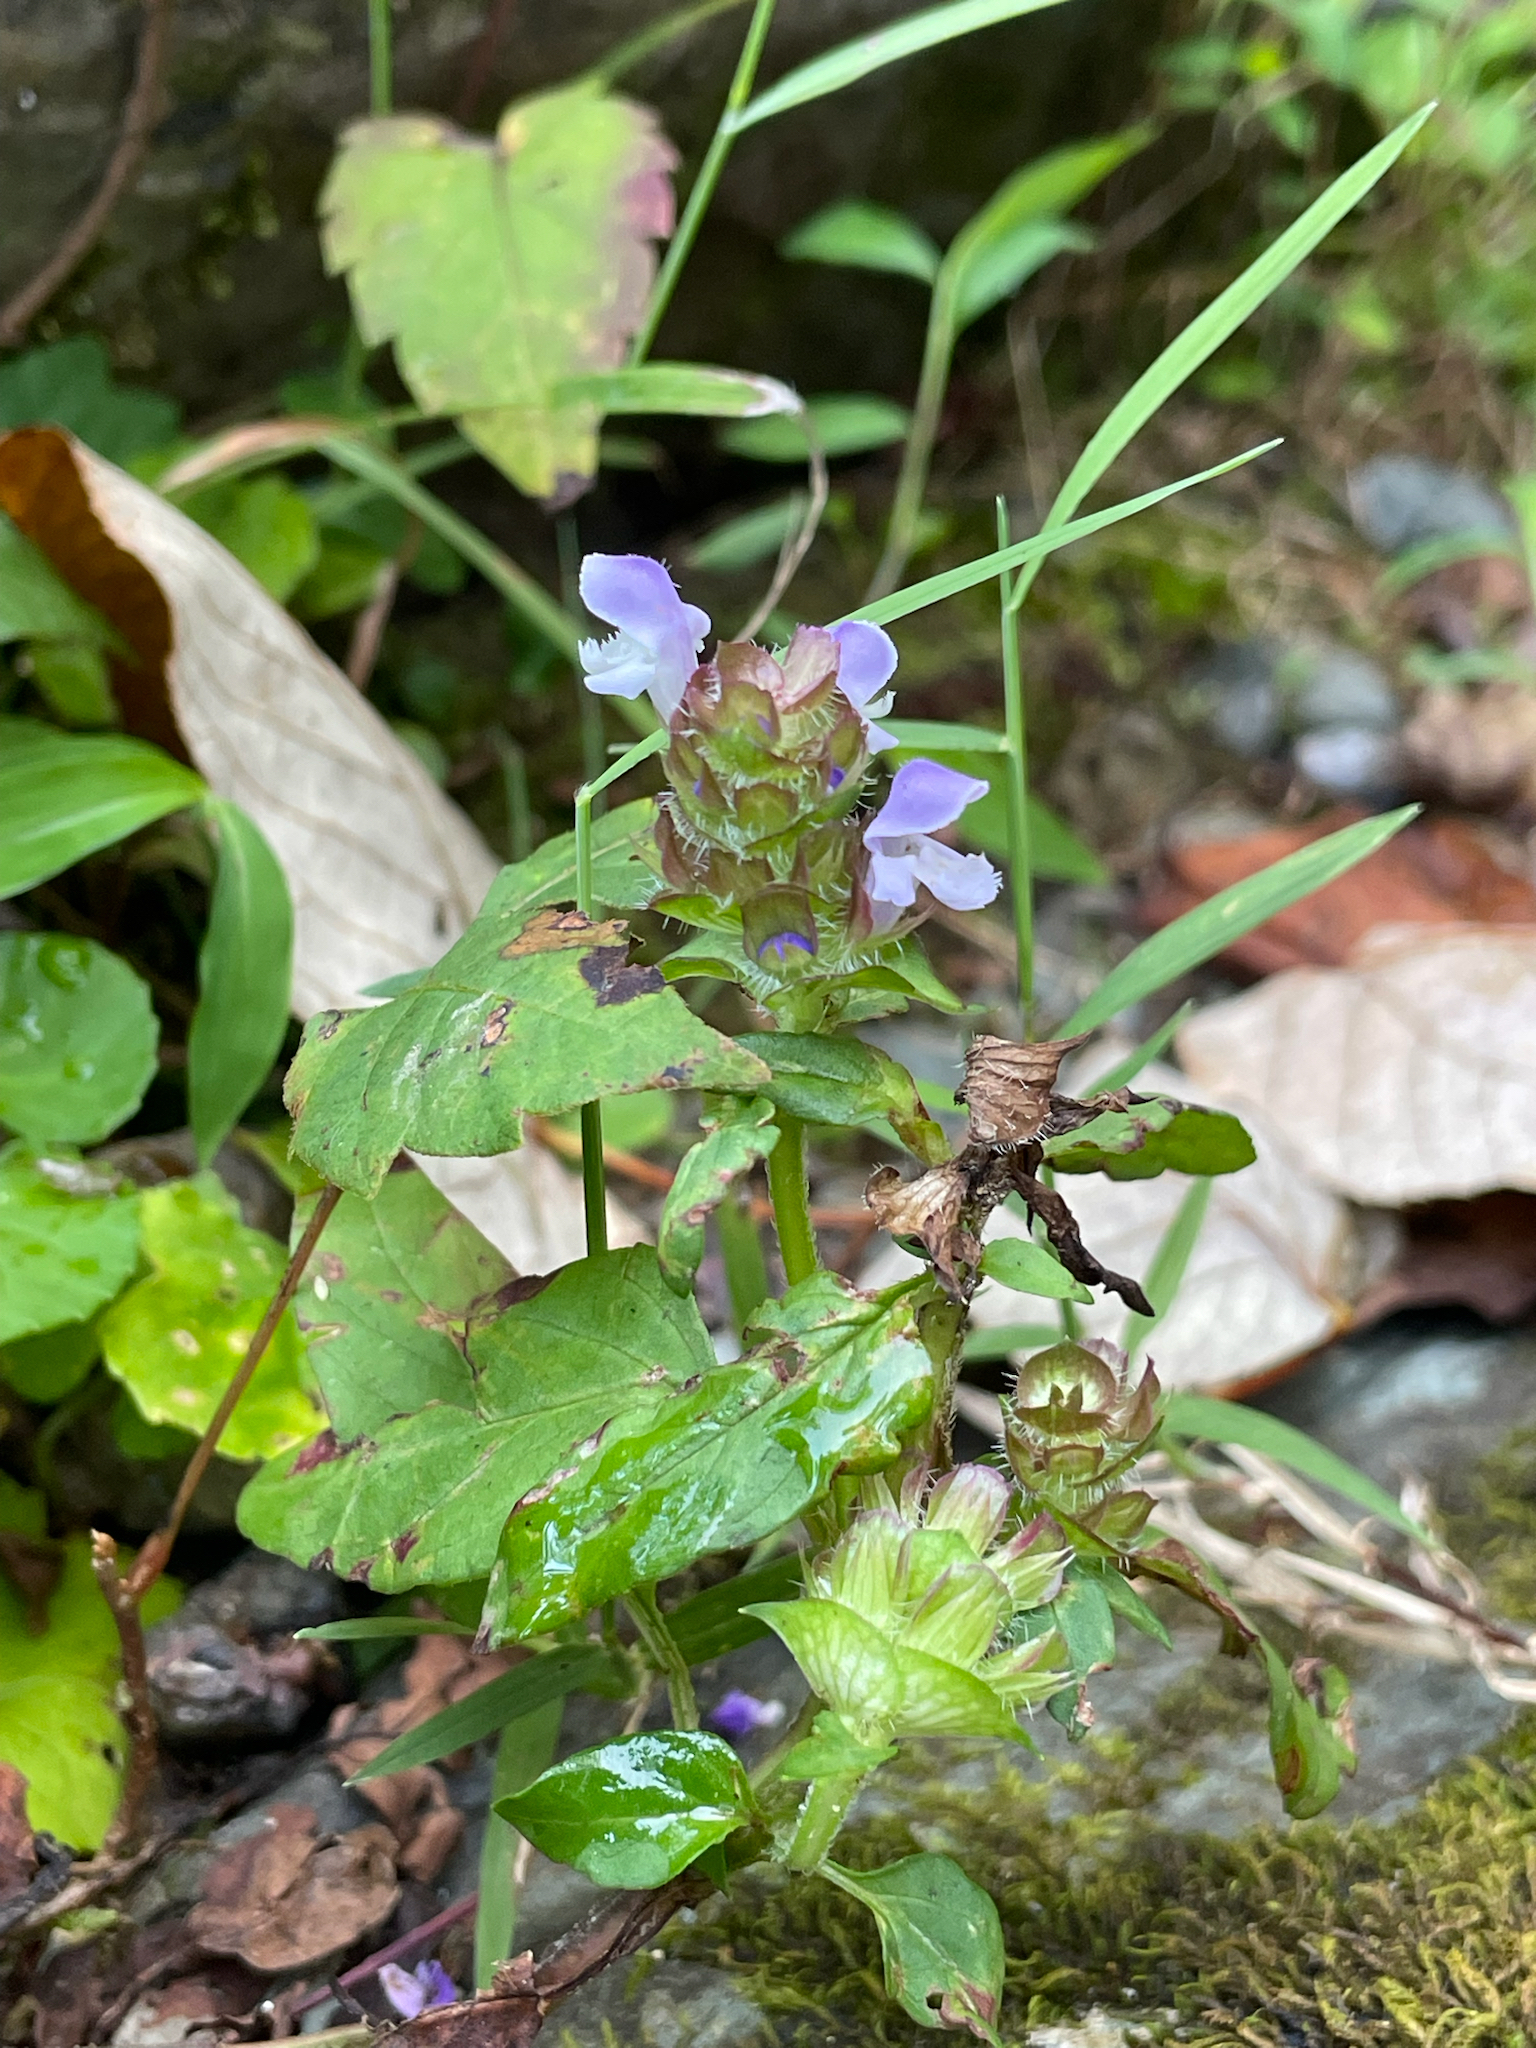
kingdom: Plantae
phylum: Tracheophyta
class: Magnoliopsida
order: Lamiales
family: Lamiaceae
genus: Prunella
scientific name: Prunella vulgaris
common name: Heal-all
